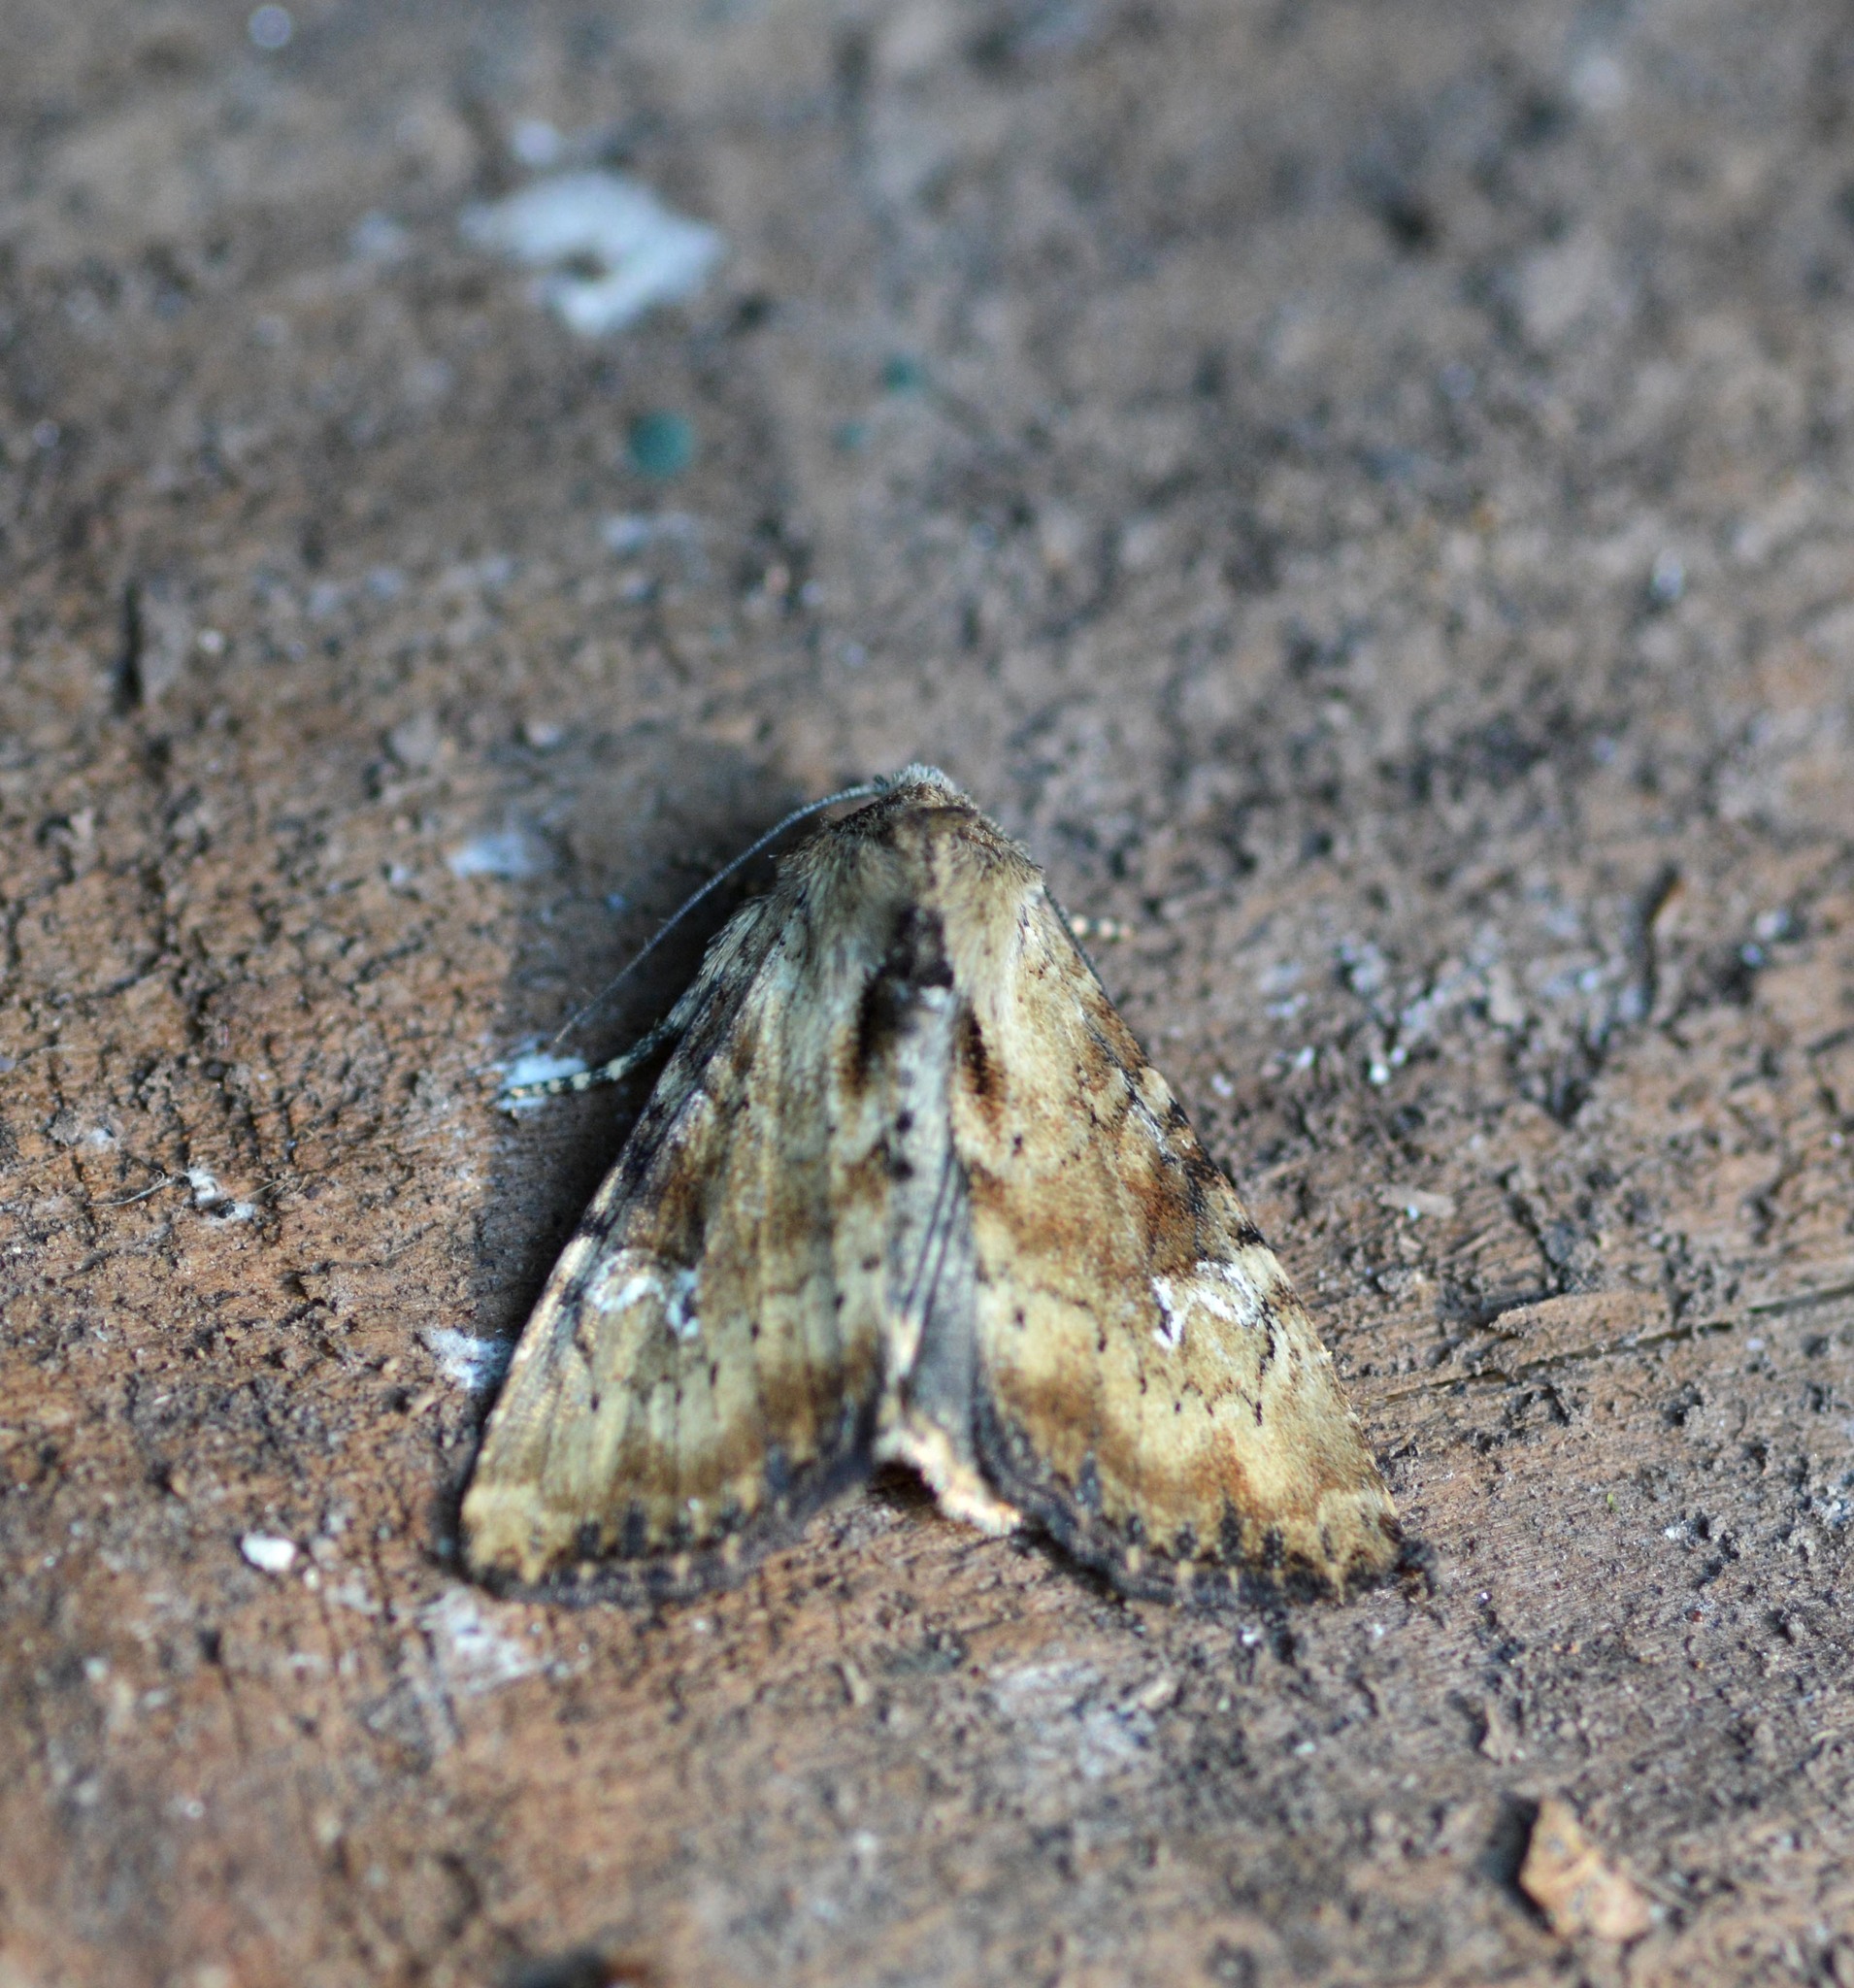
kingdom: Animalia
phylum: Arthropoda
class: Insecta
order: Lepidoptera
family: Noctuidae
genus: Loscopia
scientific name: Loscopia scolopacina
